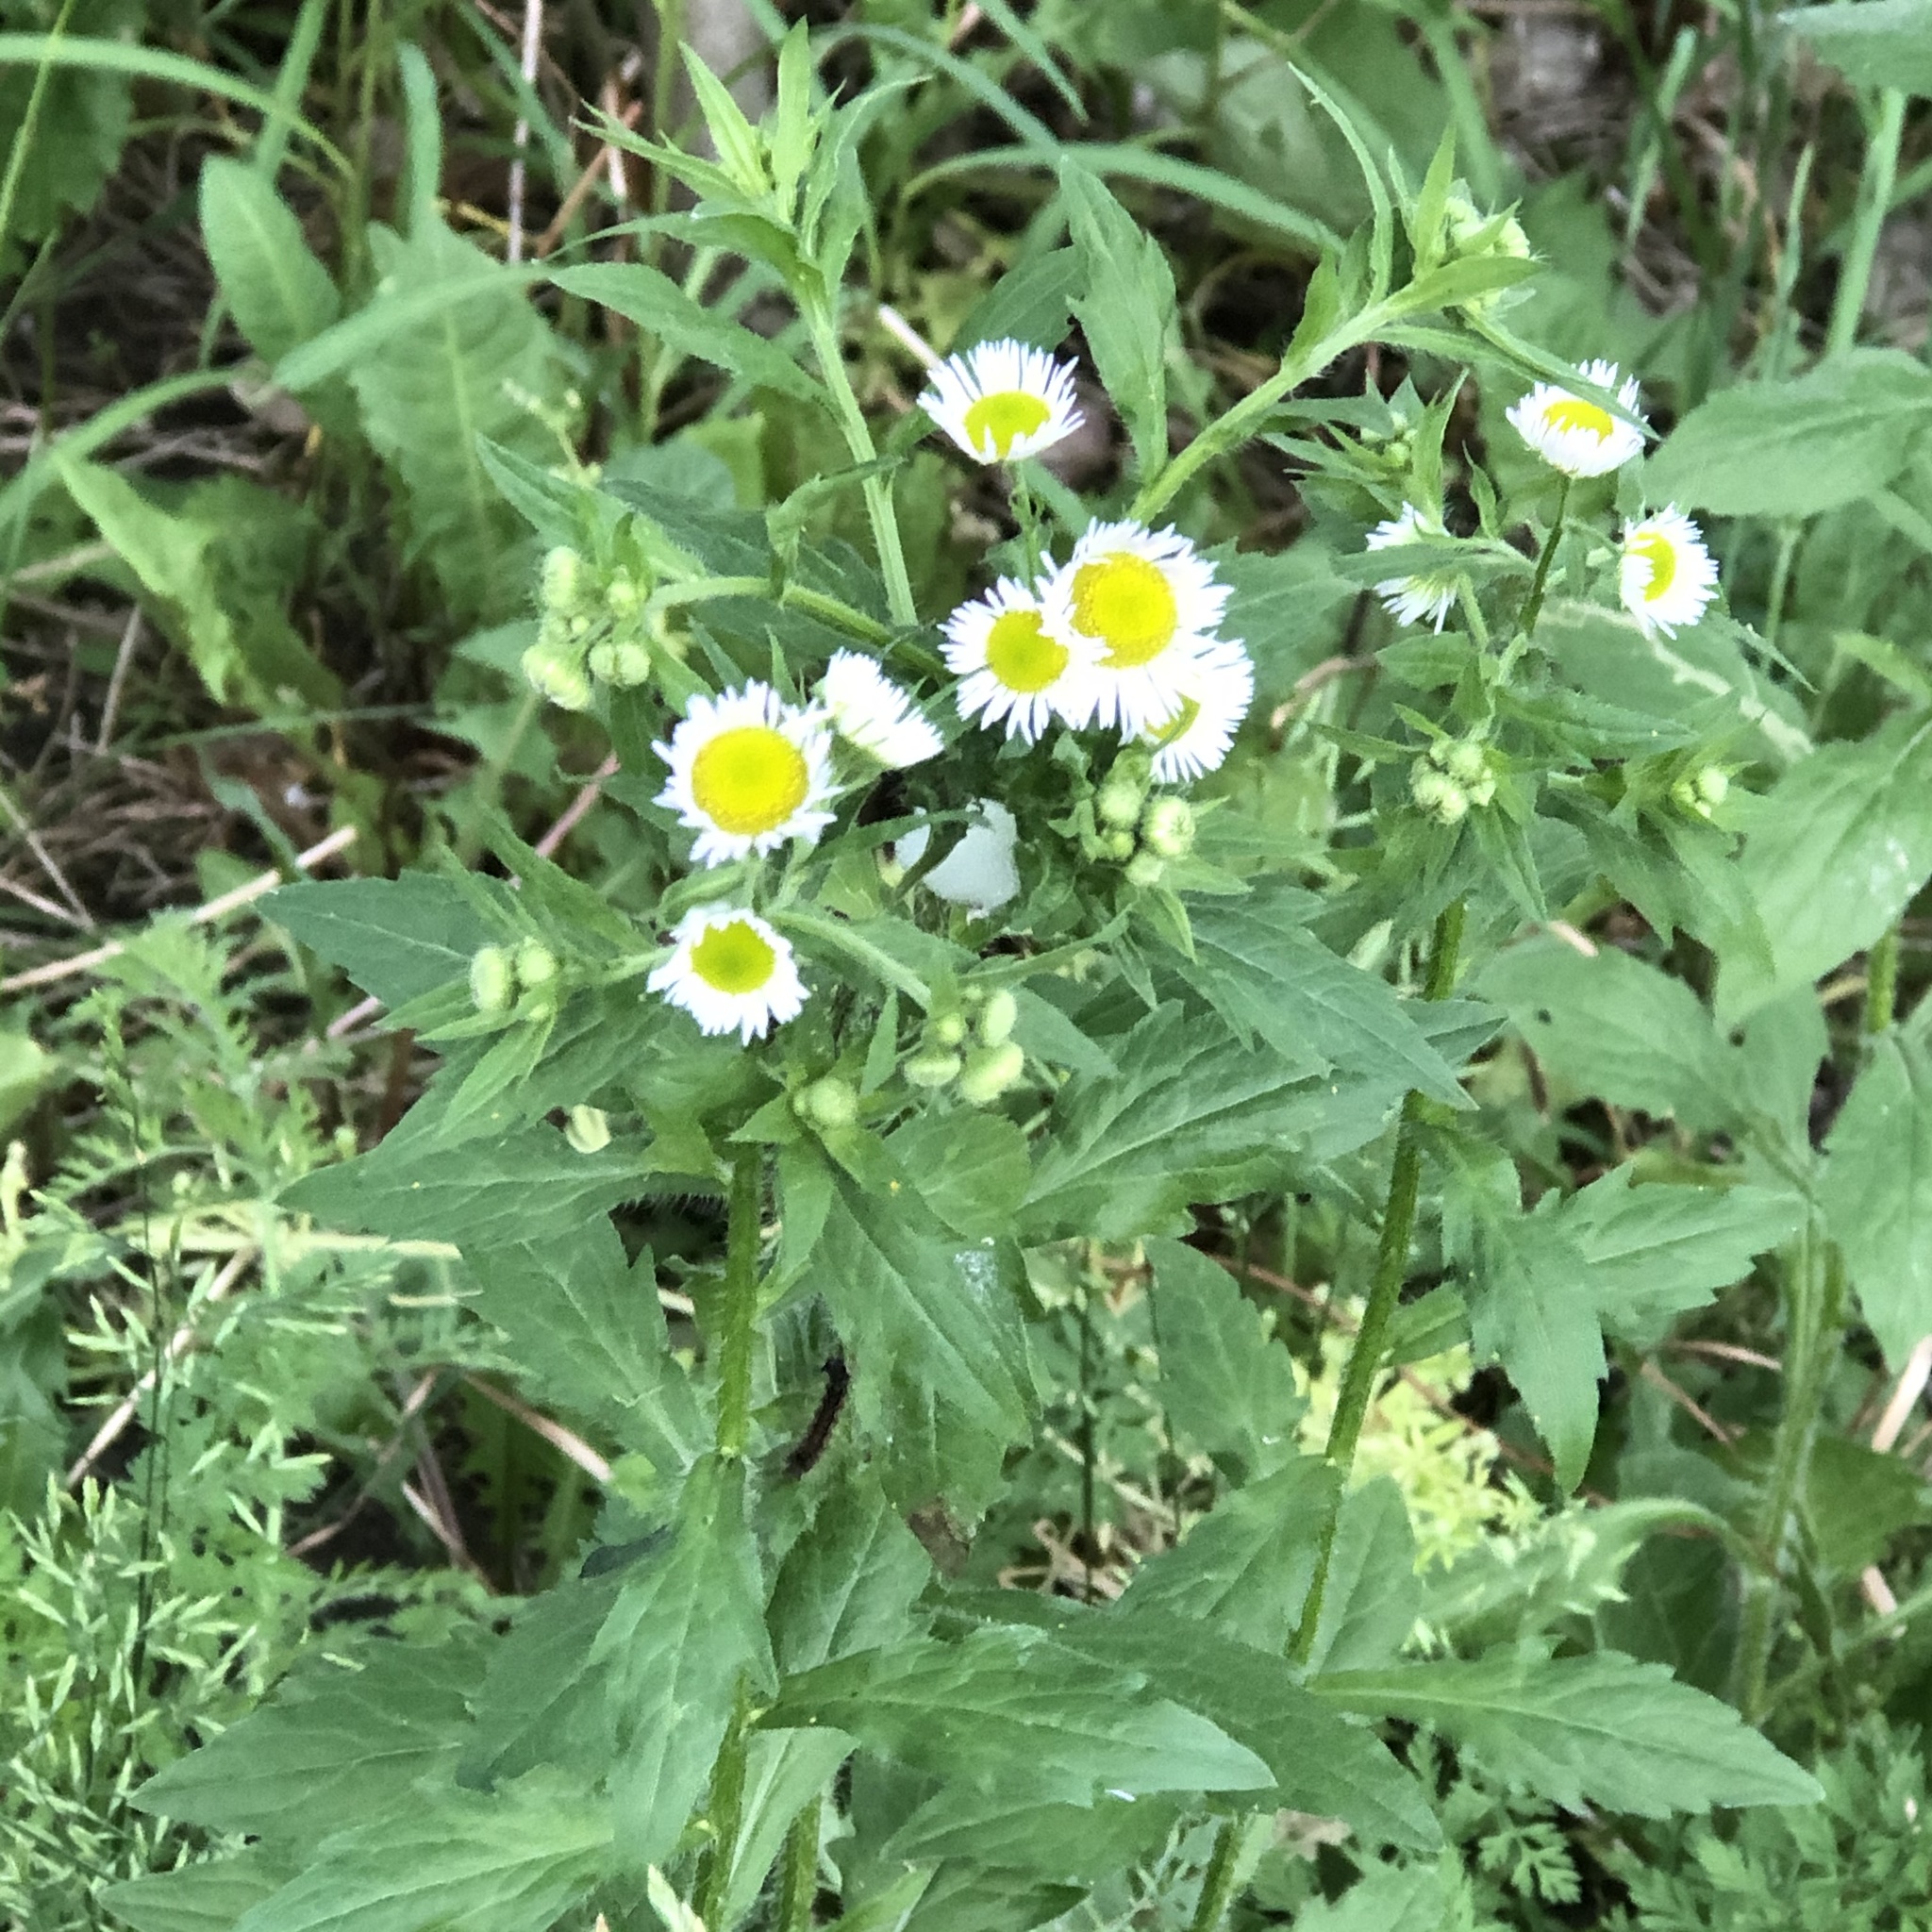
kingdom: Plantae
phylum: Tracheophyta
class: Magnoliopsida
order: Asterales
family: Asteraceae
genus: Erigeron
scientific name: Erigeron annuus
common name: Tall fleabane
